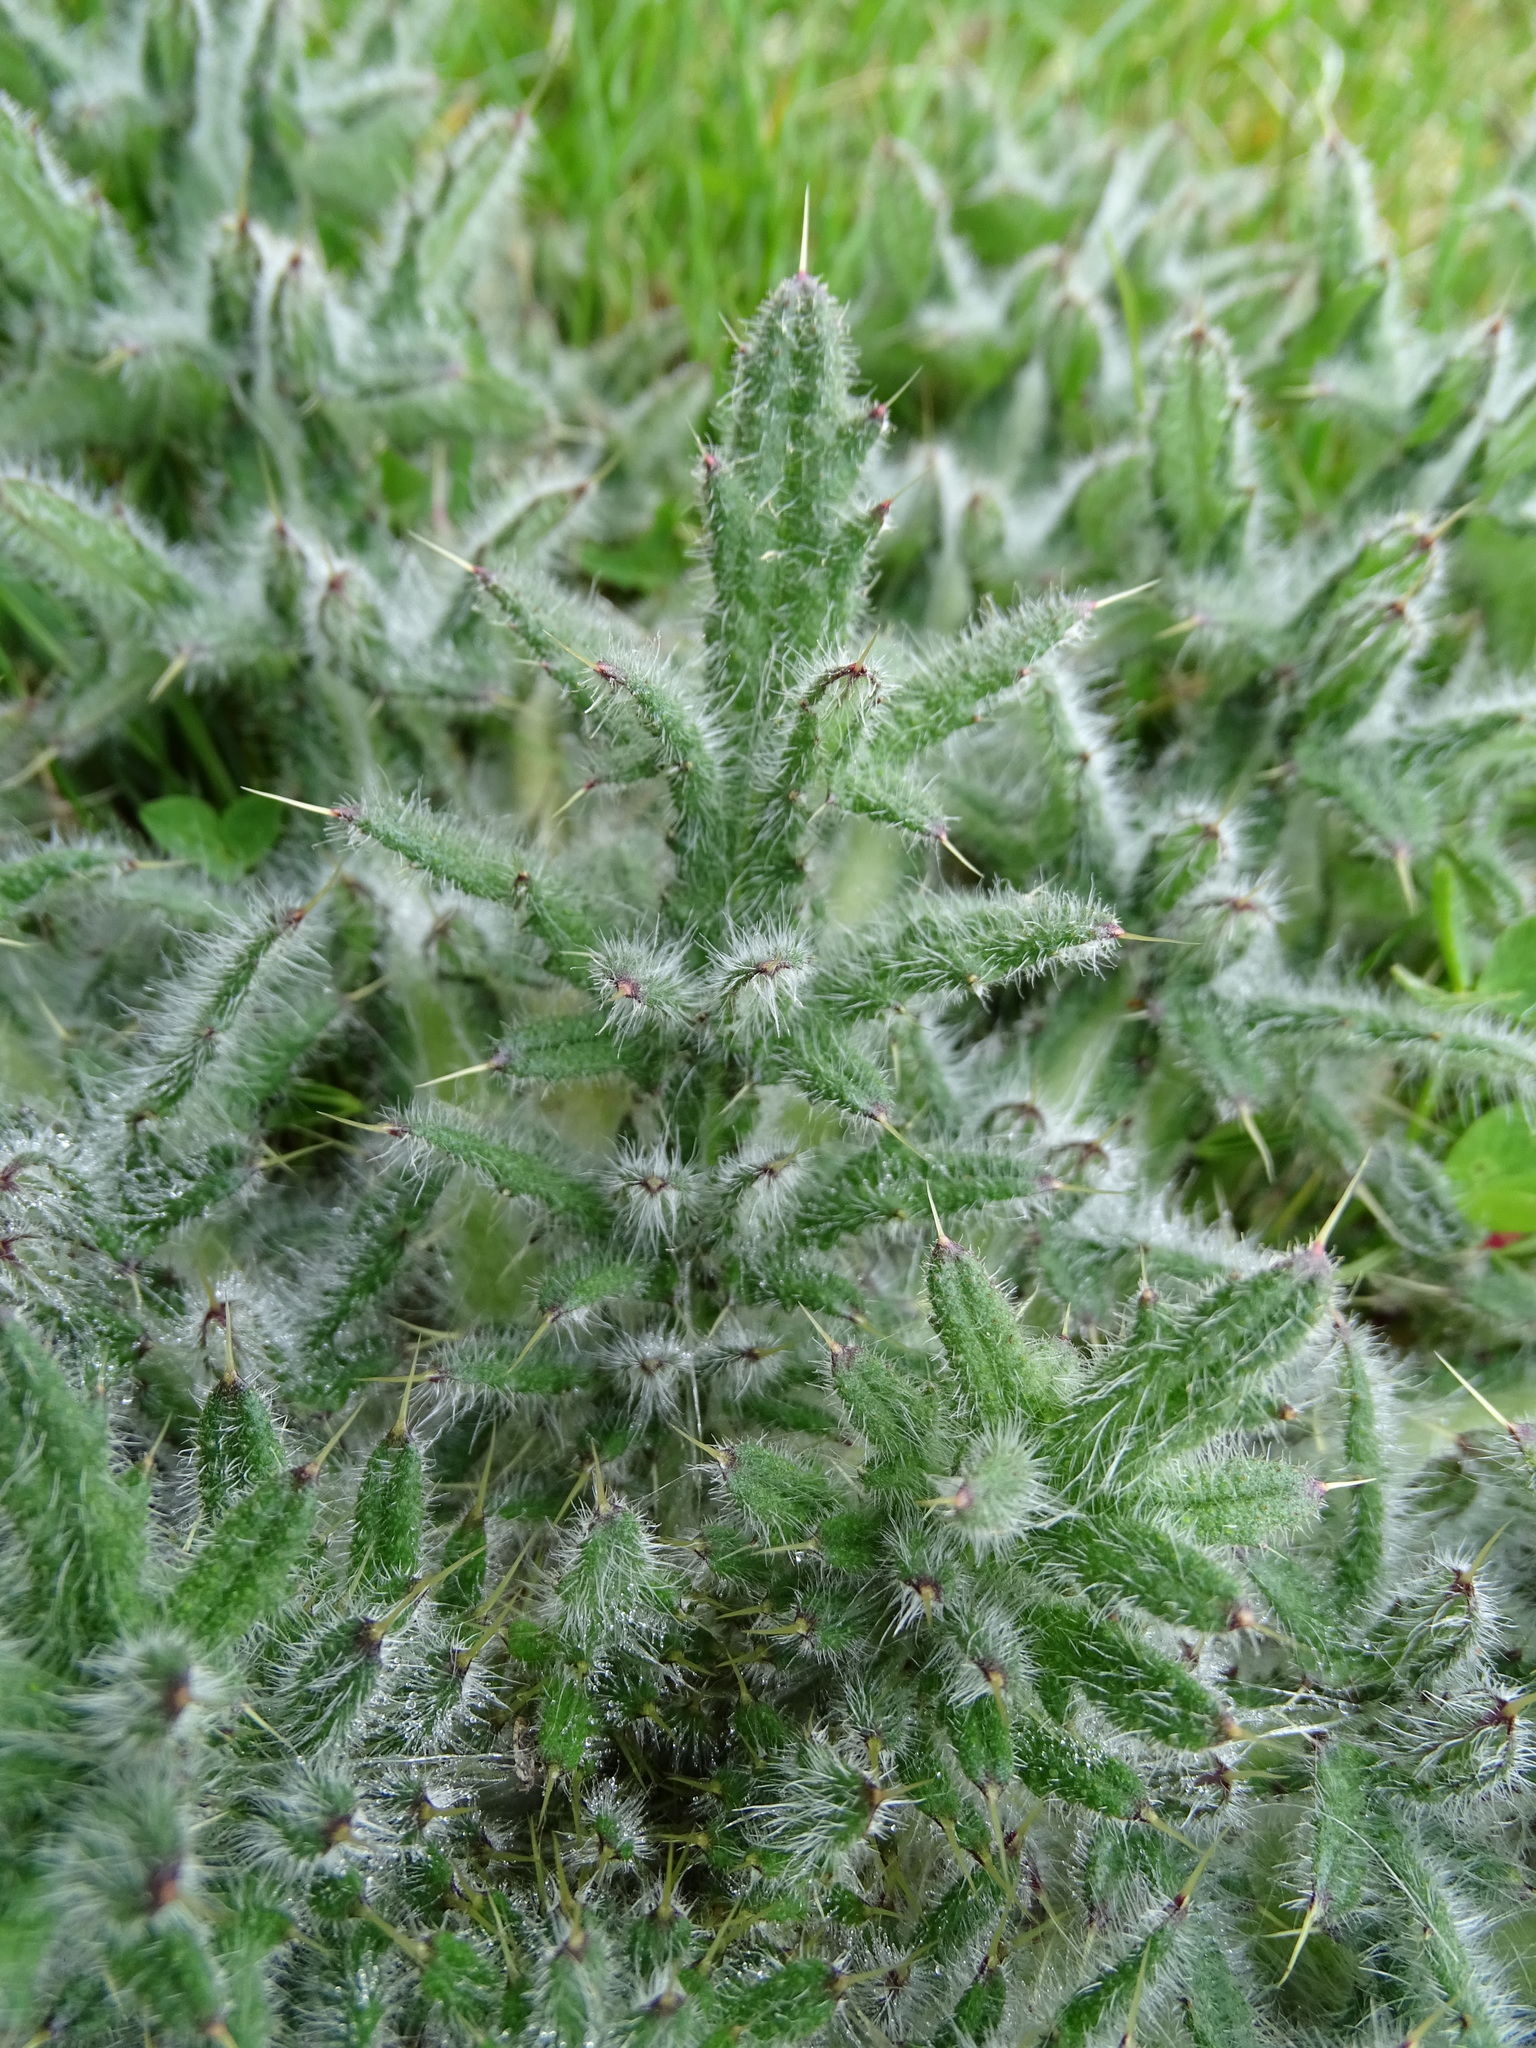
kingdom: Plantae
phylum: Tracheophyta
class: Magnoliopsida
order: Asterales
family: Asteraceae
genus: Cirsium
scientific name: Cirsium vulgare
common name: Bull thistle
